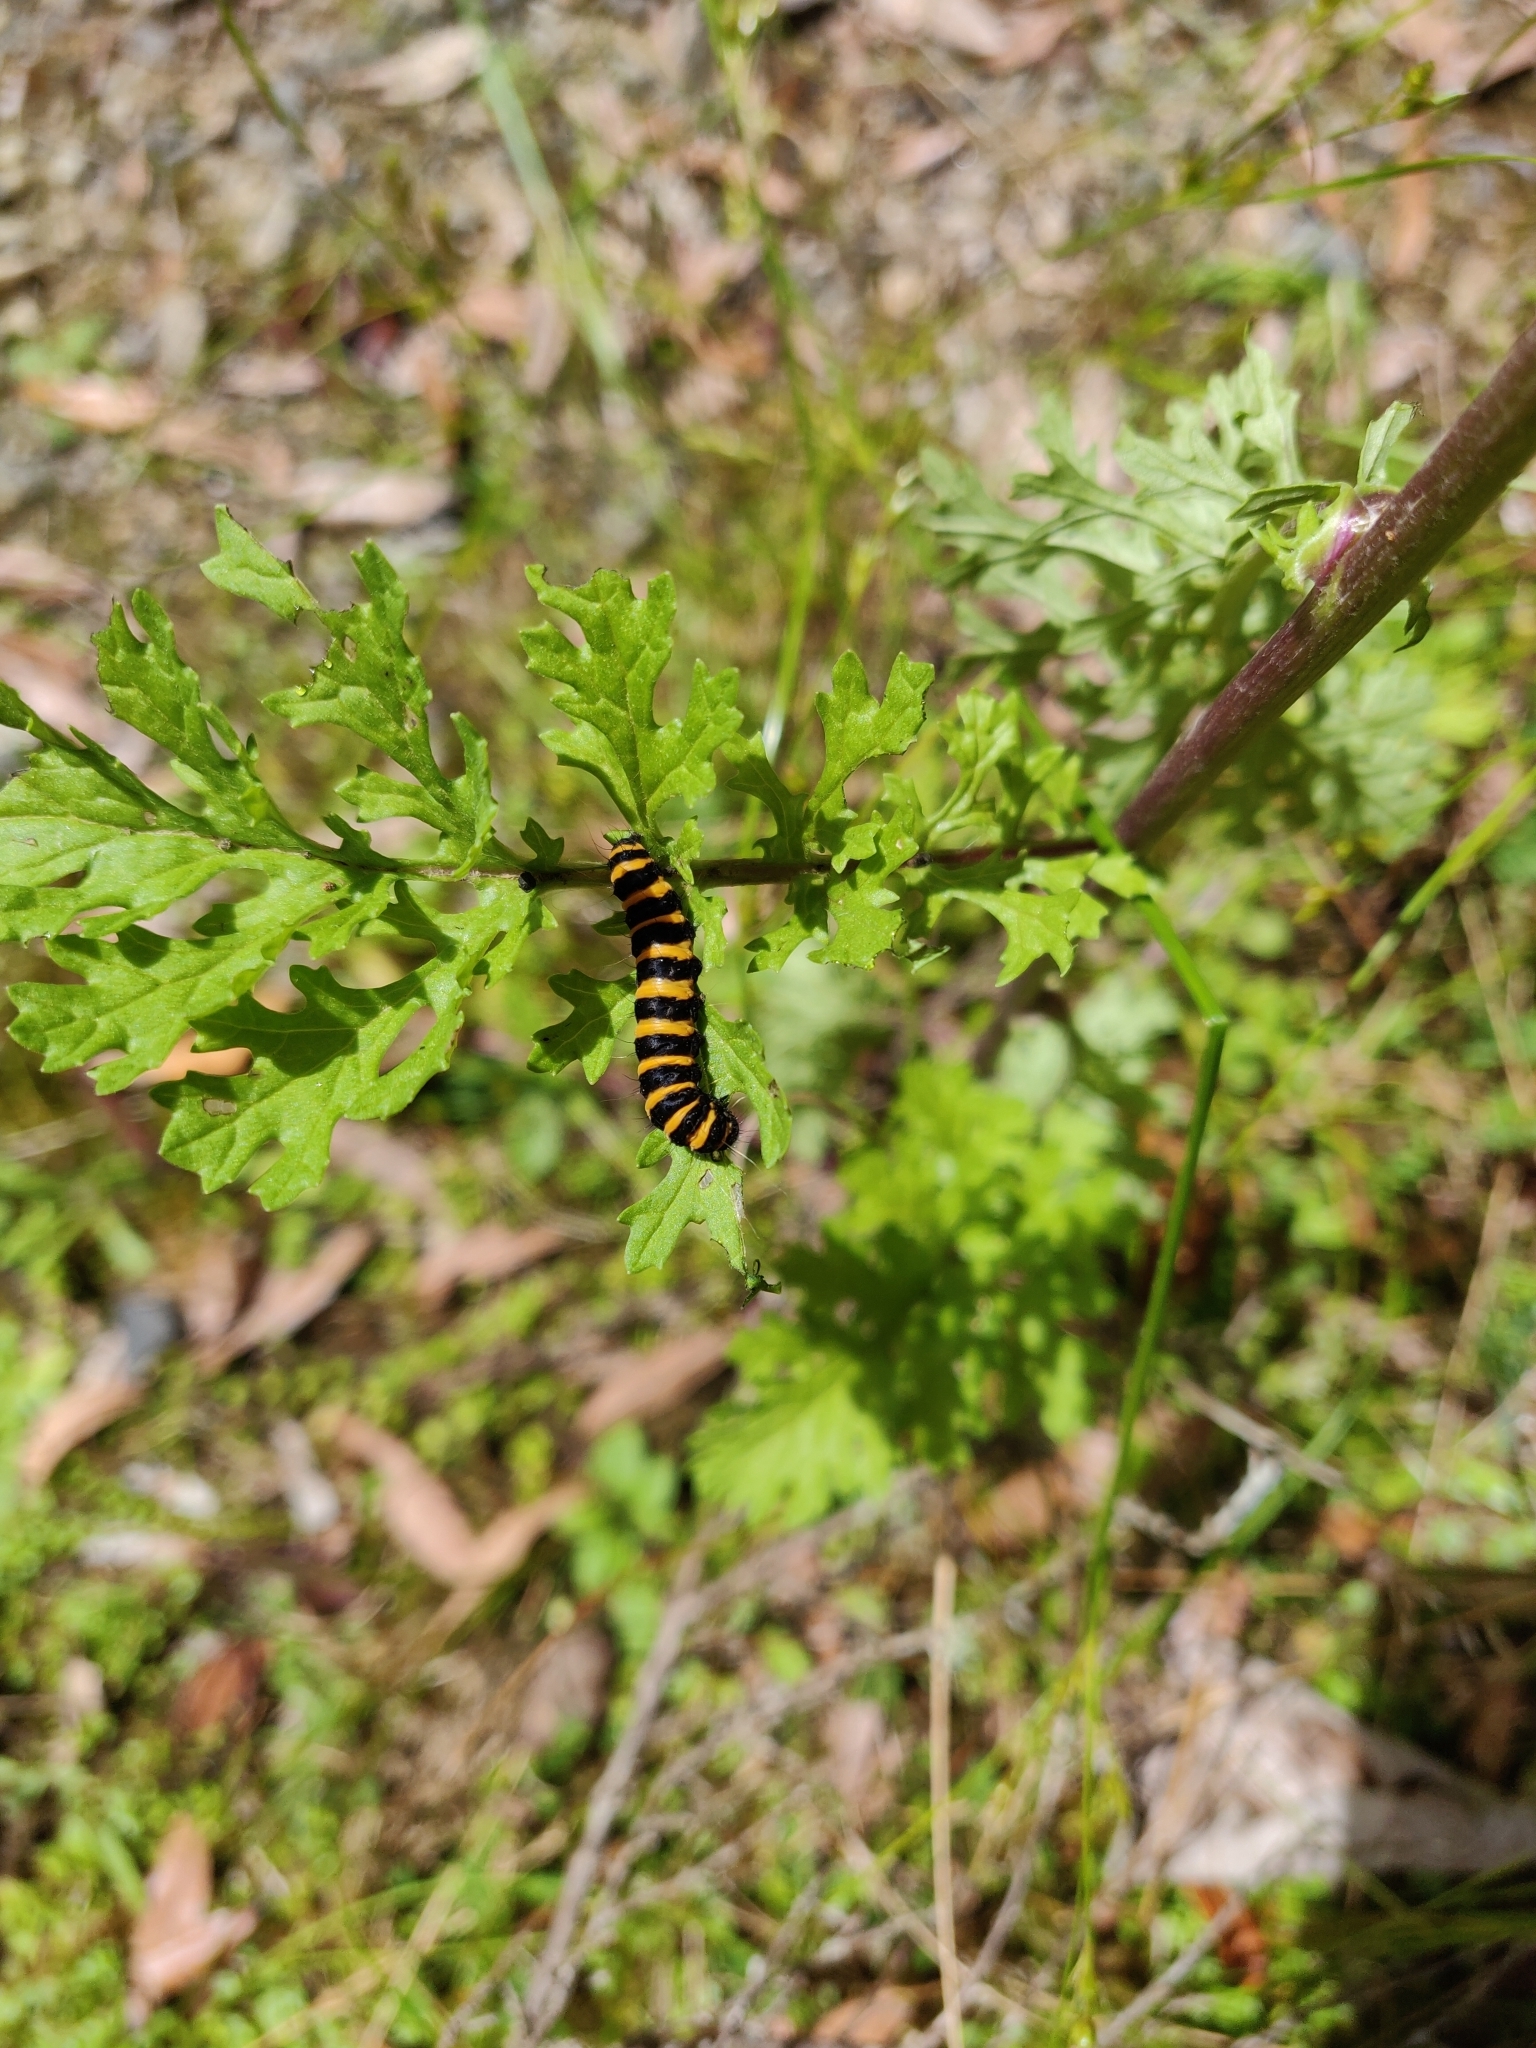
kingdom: Animalia
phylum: Arthropoda
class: Insecta
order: Lepidoptera
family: Erebidae
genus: Tyria
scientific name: Tyria jacobaeae
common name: Cinnabar
